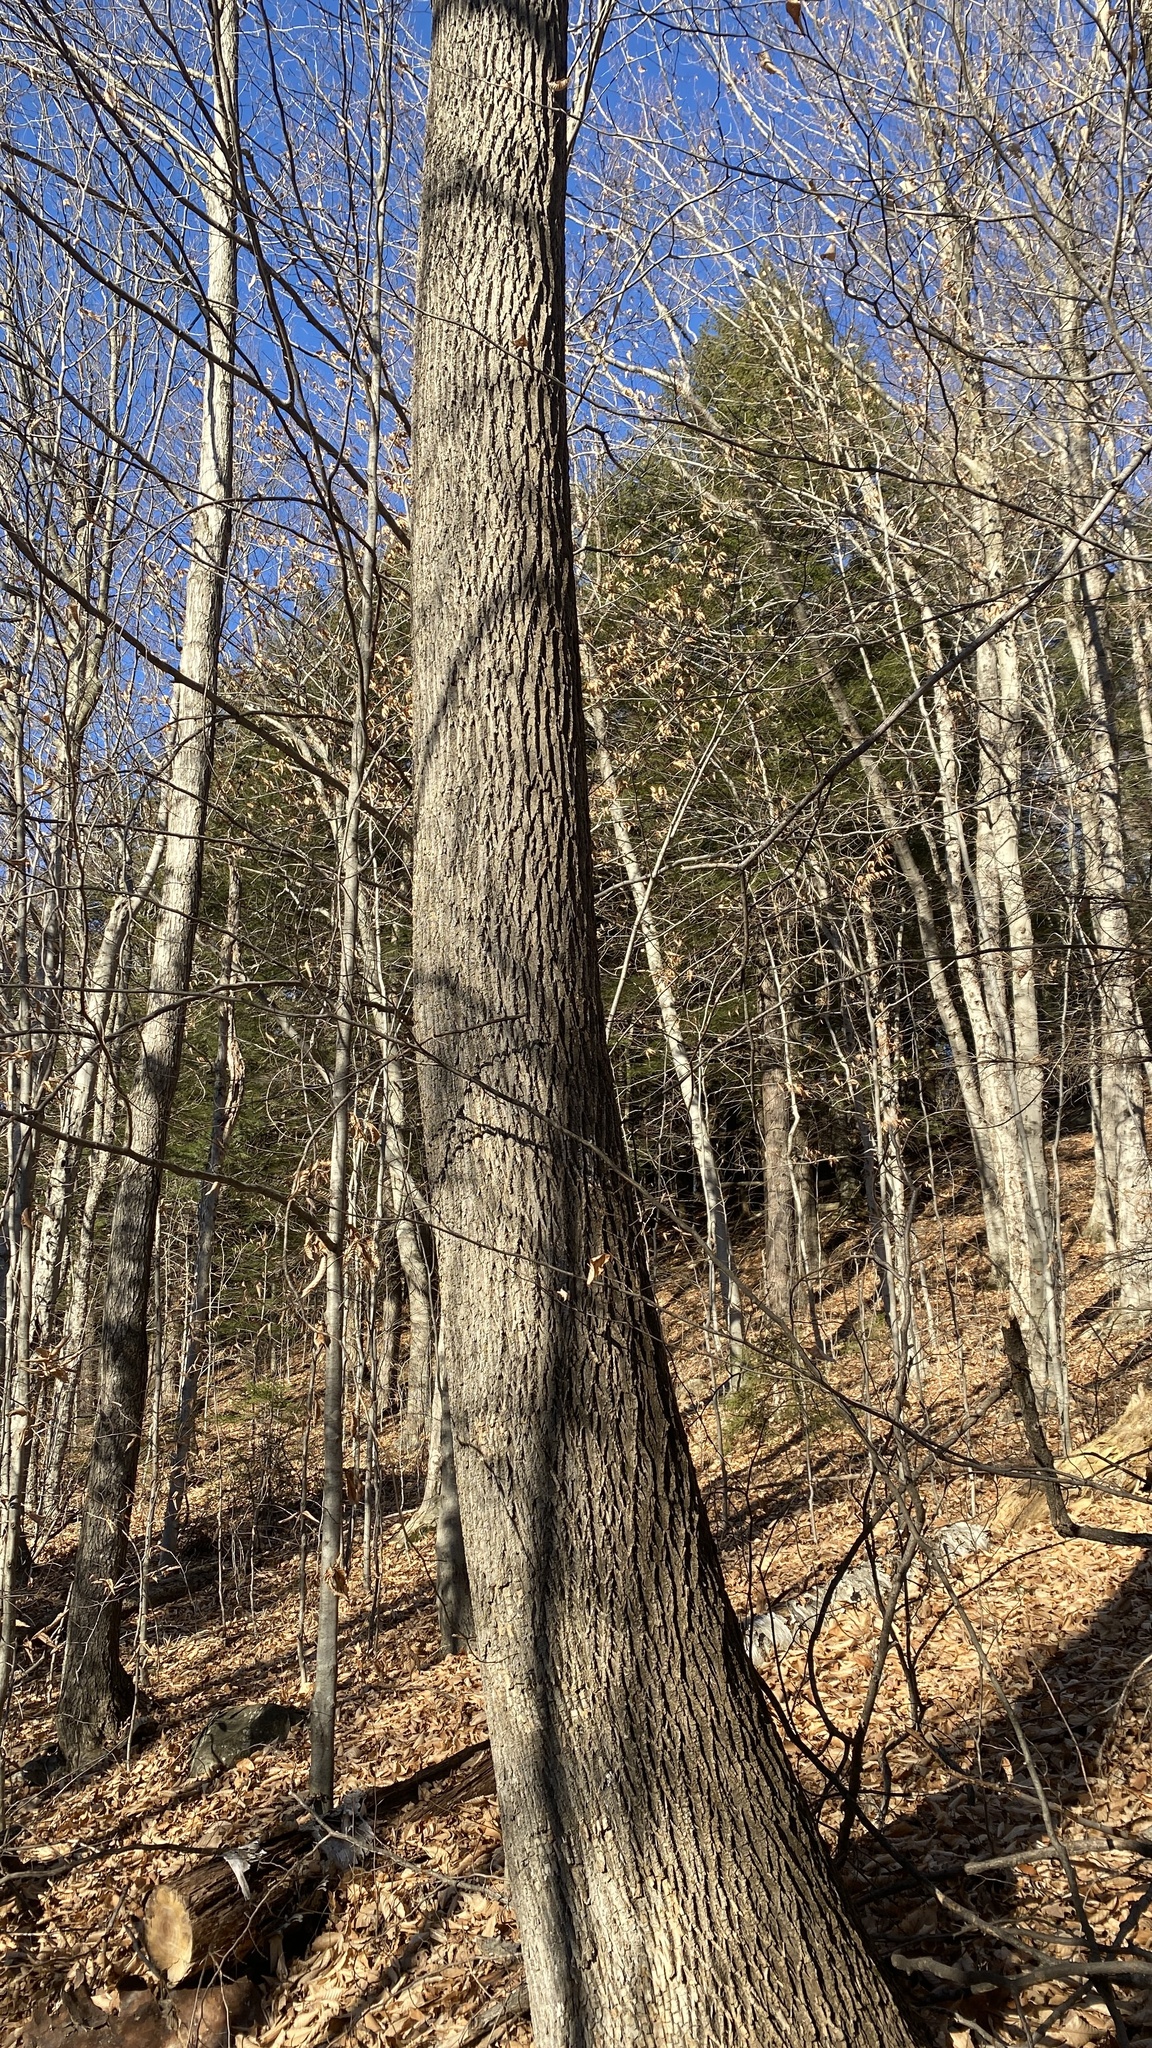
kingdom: Plantae
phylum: Tracheophyta
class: Magnoliopsida
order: Lamiales
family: Oleaceae
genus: Fraxinus
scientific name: Fraxinus americana
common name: White ash
